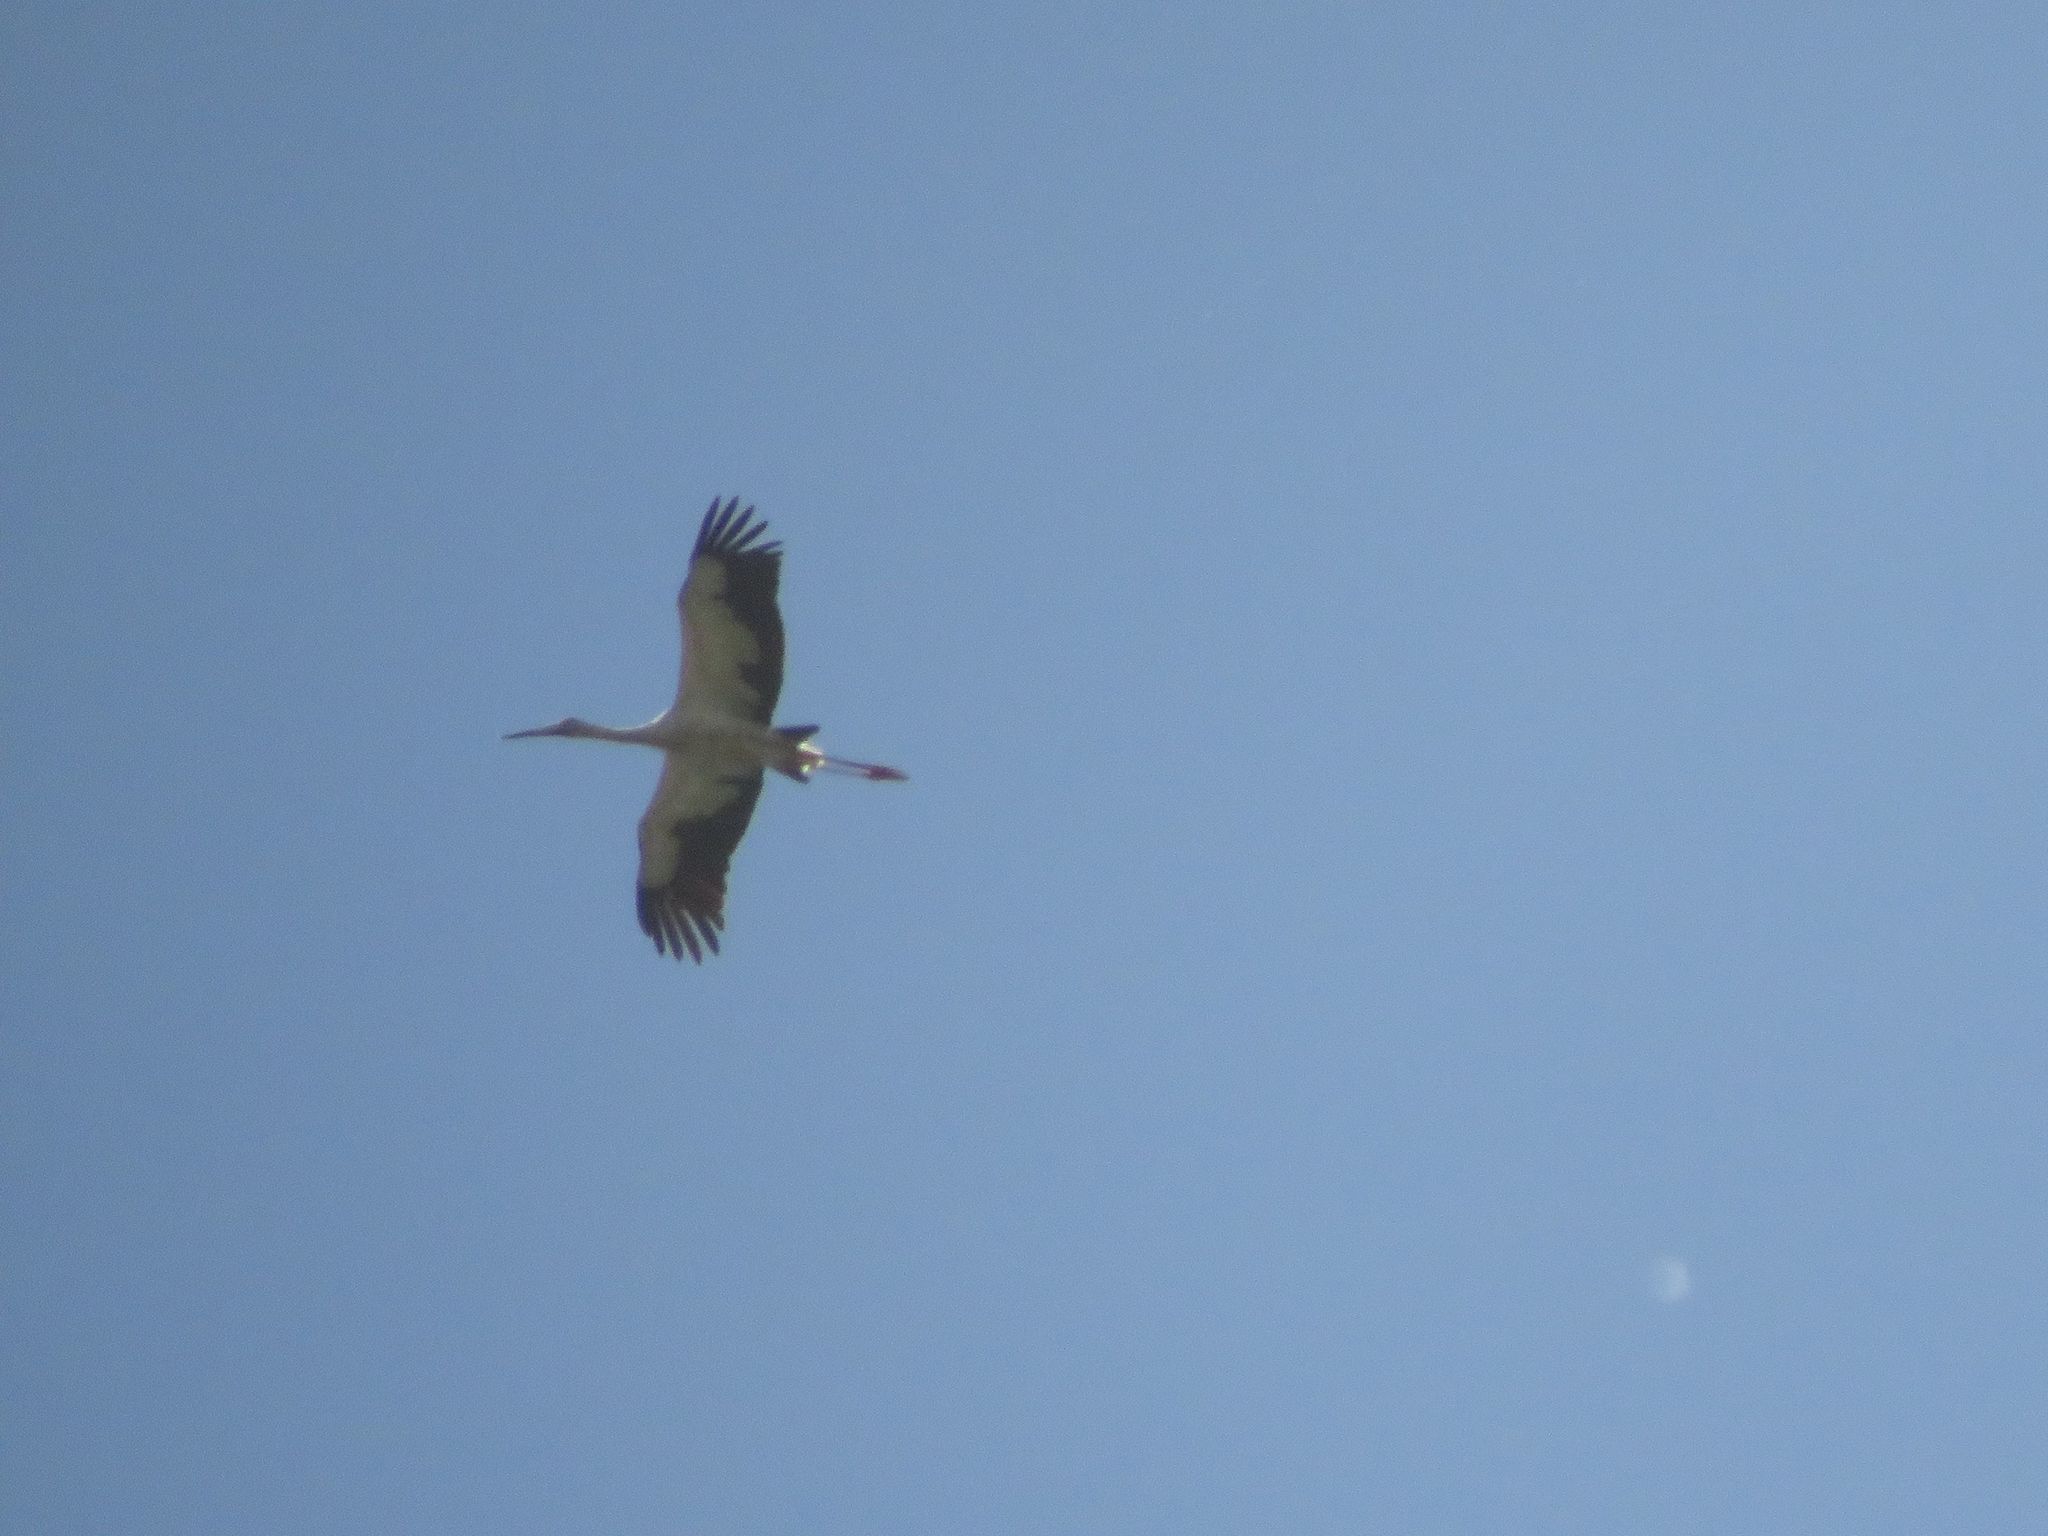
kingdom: Animalia
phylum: Chordata
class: Aves
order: Ciconiiformes
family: Ciconiidae
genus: Ciconia
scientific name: Ciconia maguari
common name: Maguari stork
